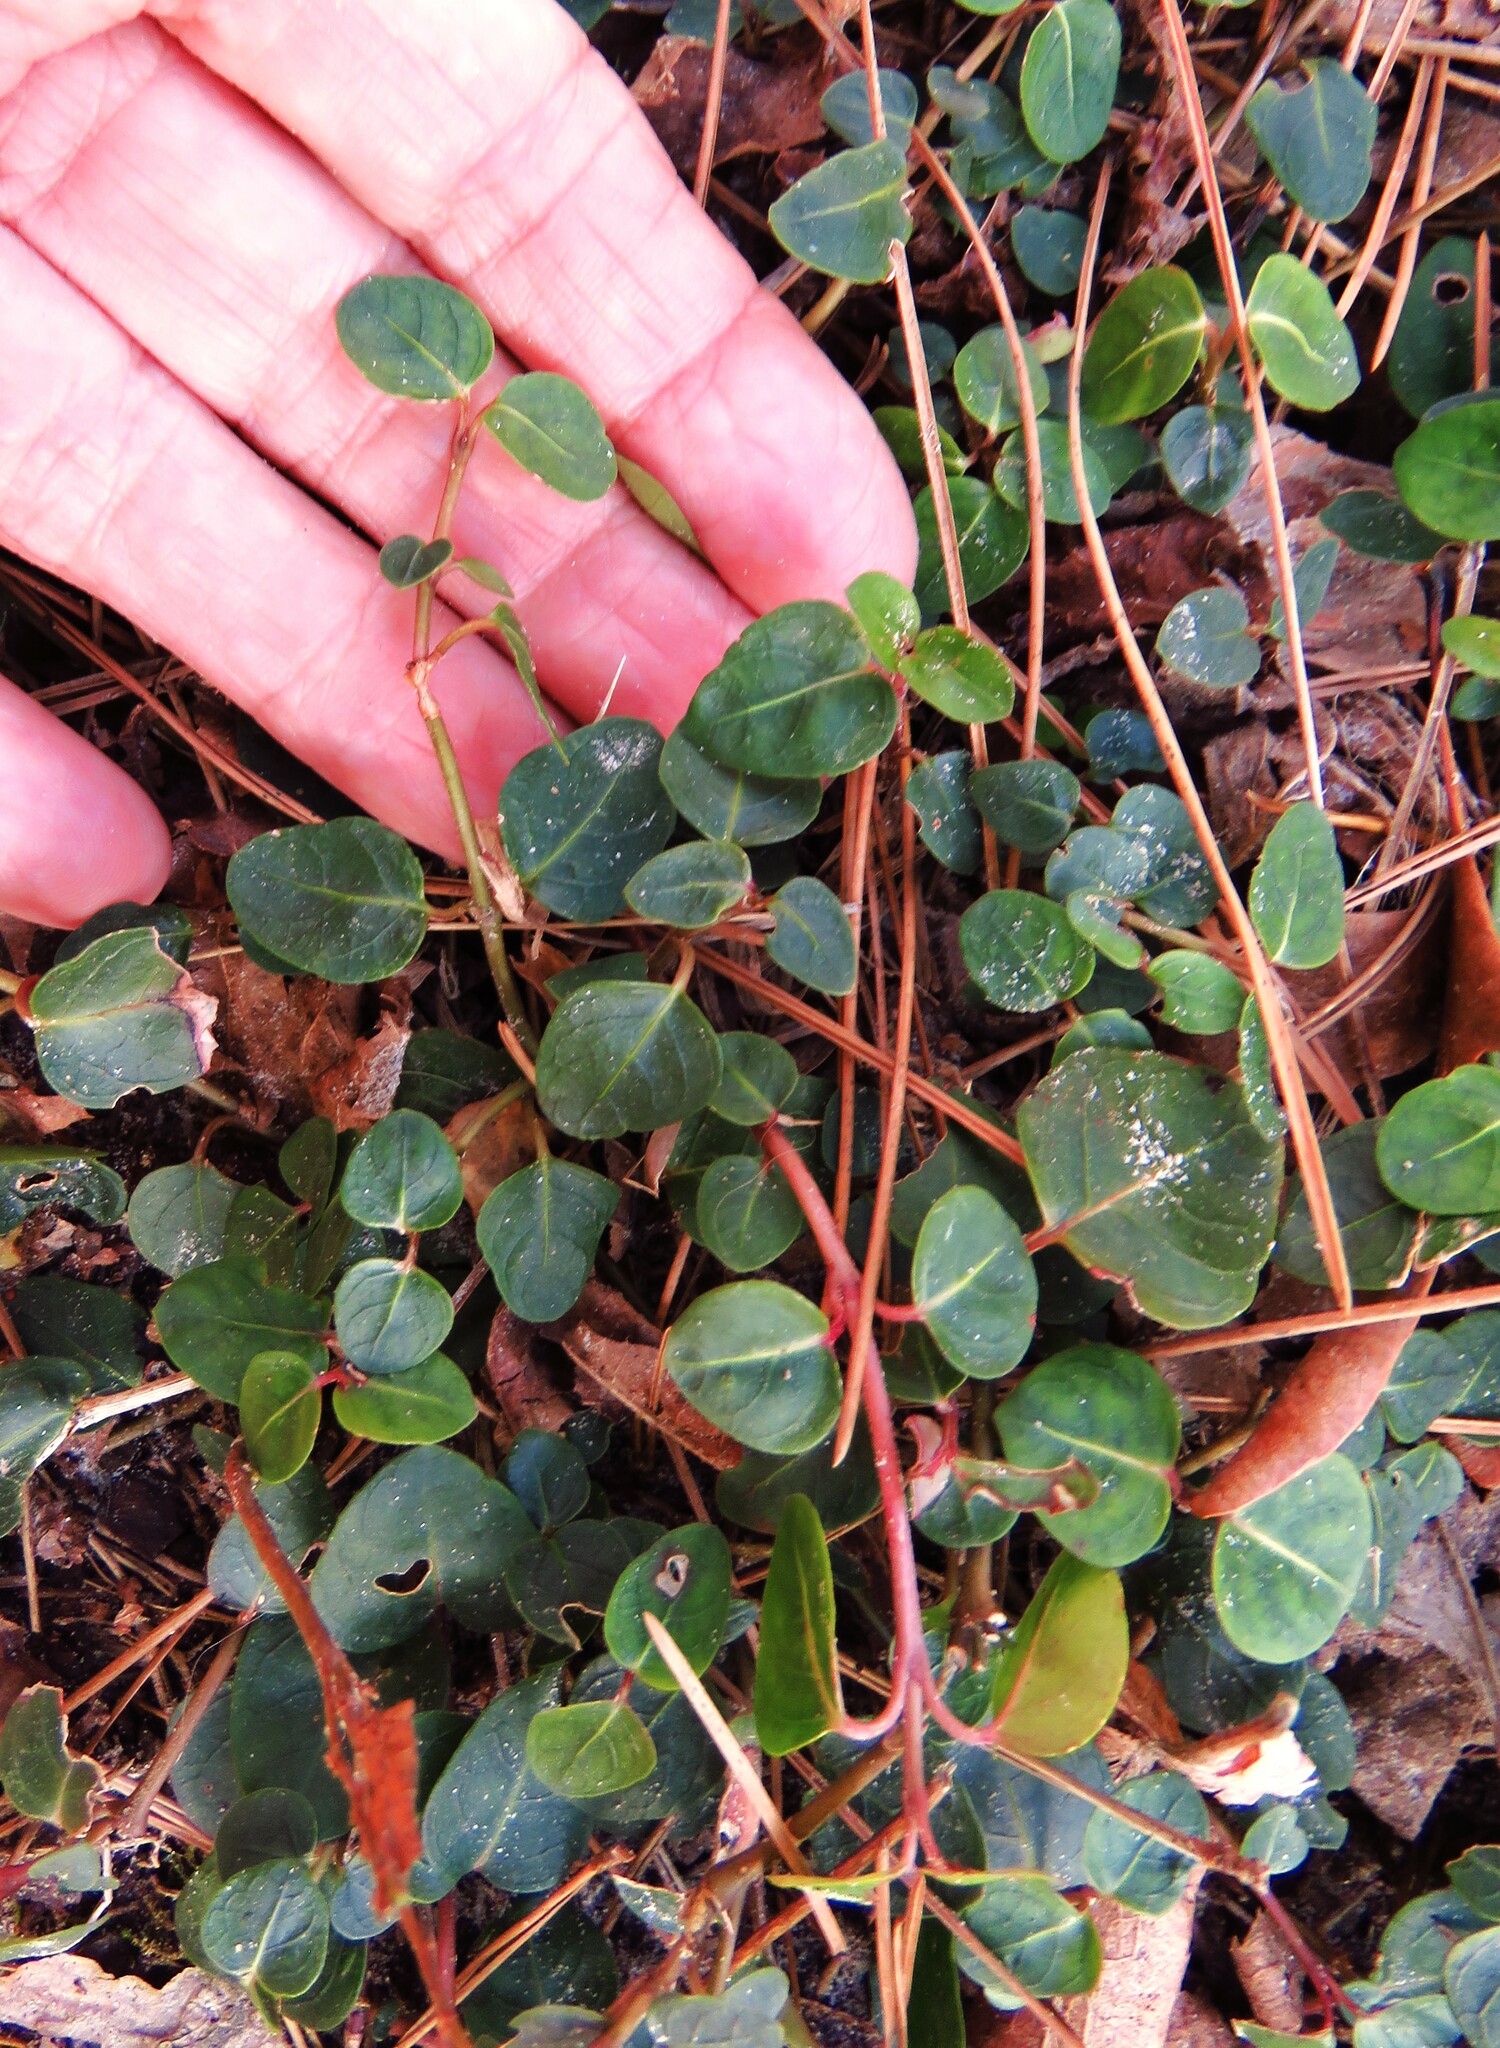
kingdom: Plantae
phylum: Tracheophyta
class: Magnoliopsida
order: Gentianales
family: Rubiaceae
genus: Mitchella
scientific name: Mitchella repens
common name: Partridge-berry
